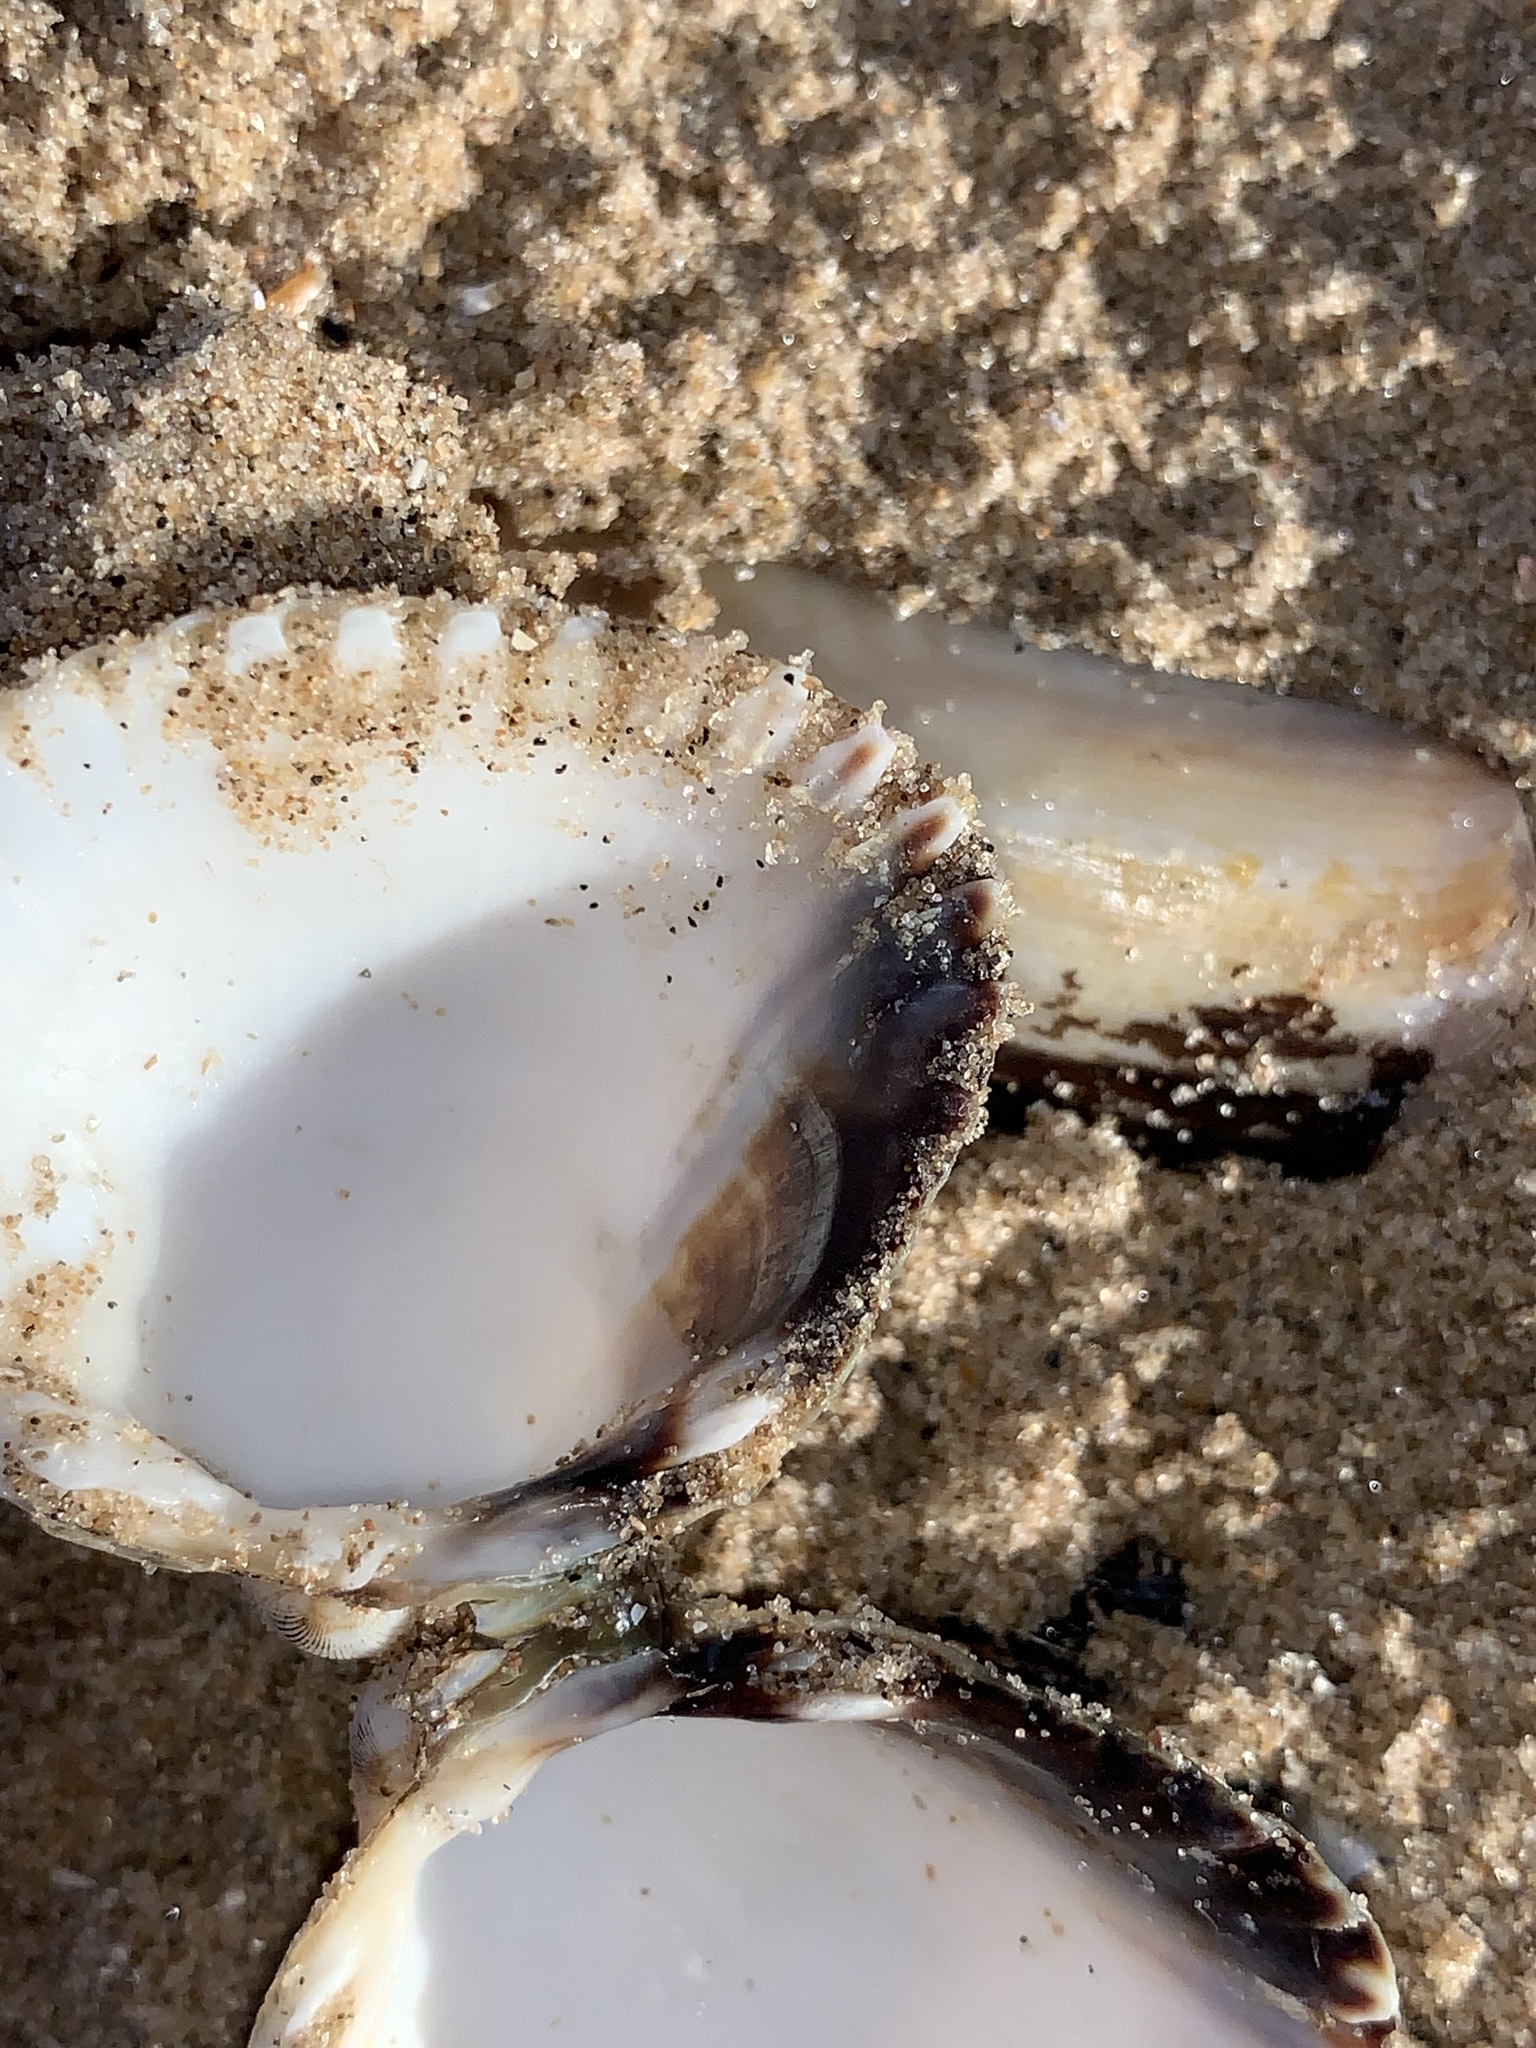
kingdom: Animalia
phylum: Mollusca
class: Bivalvia
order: Cardiida
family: Cardiidae
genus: Cerastoderma
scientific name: Cerastoderma edule
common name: Common cockle
